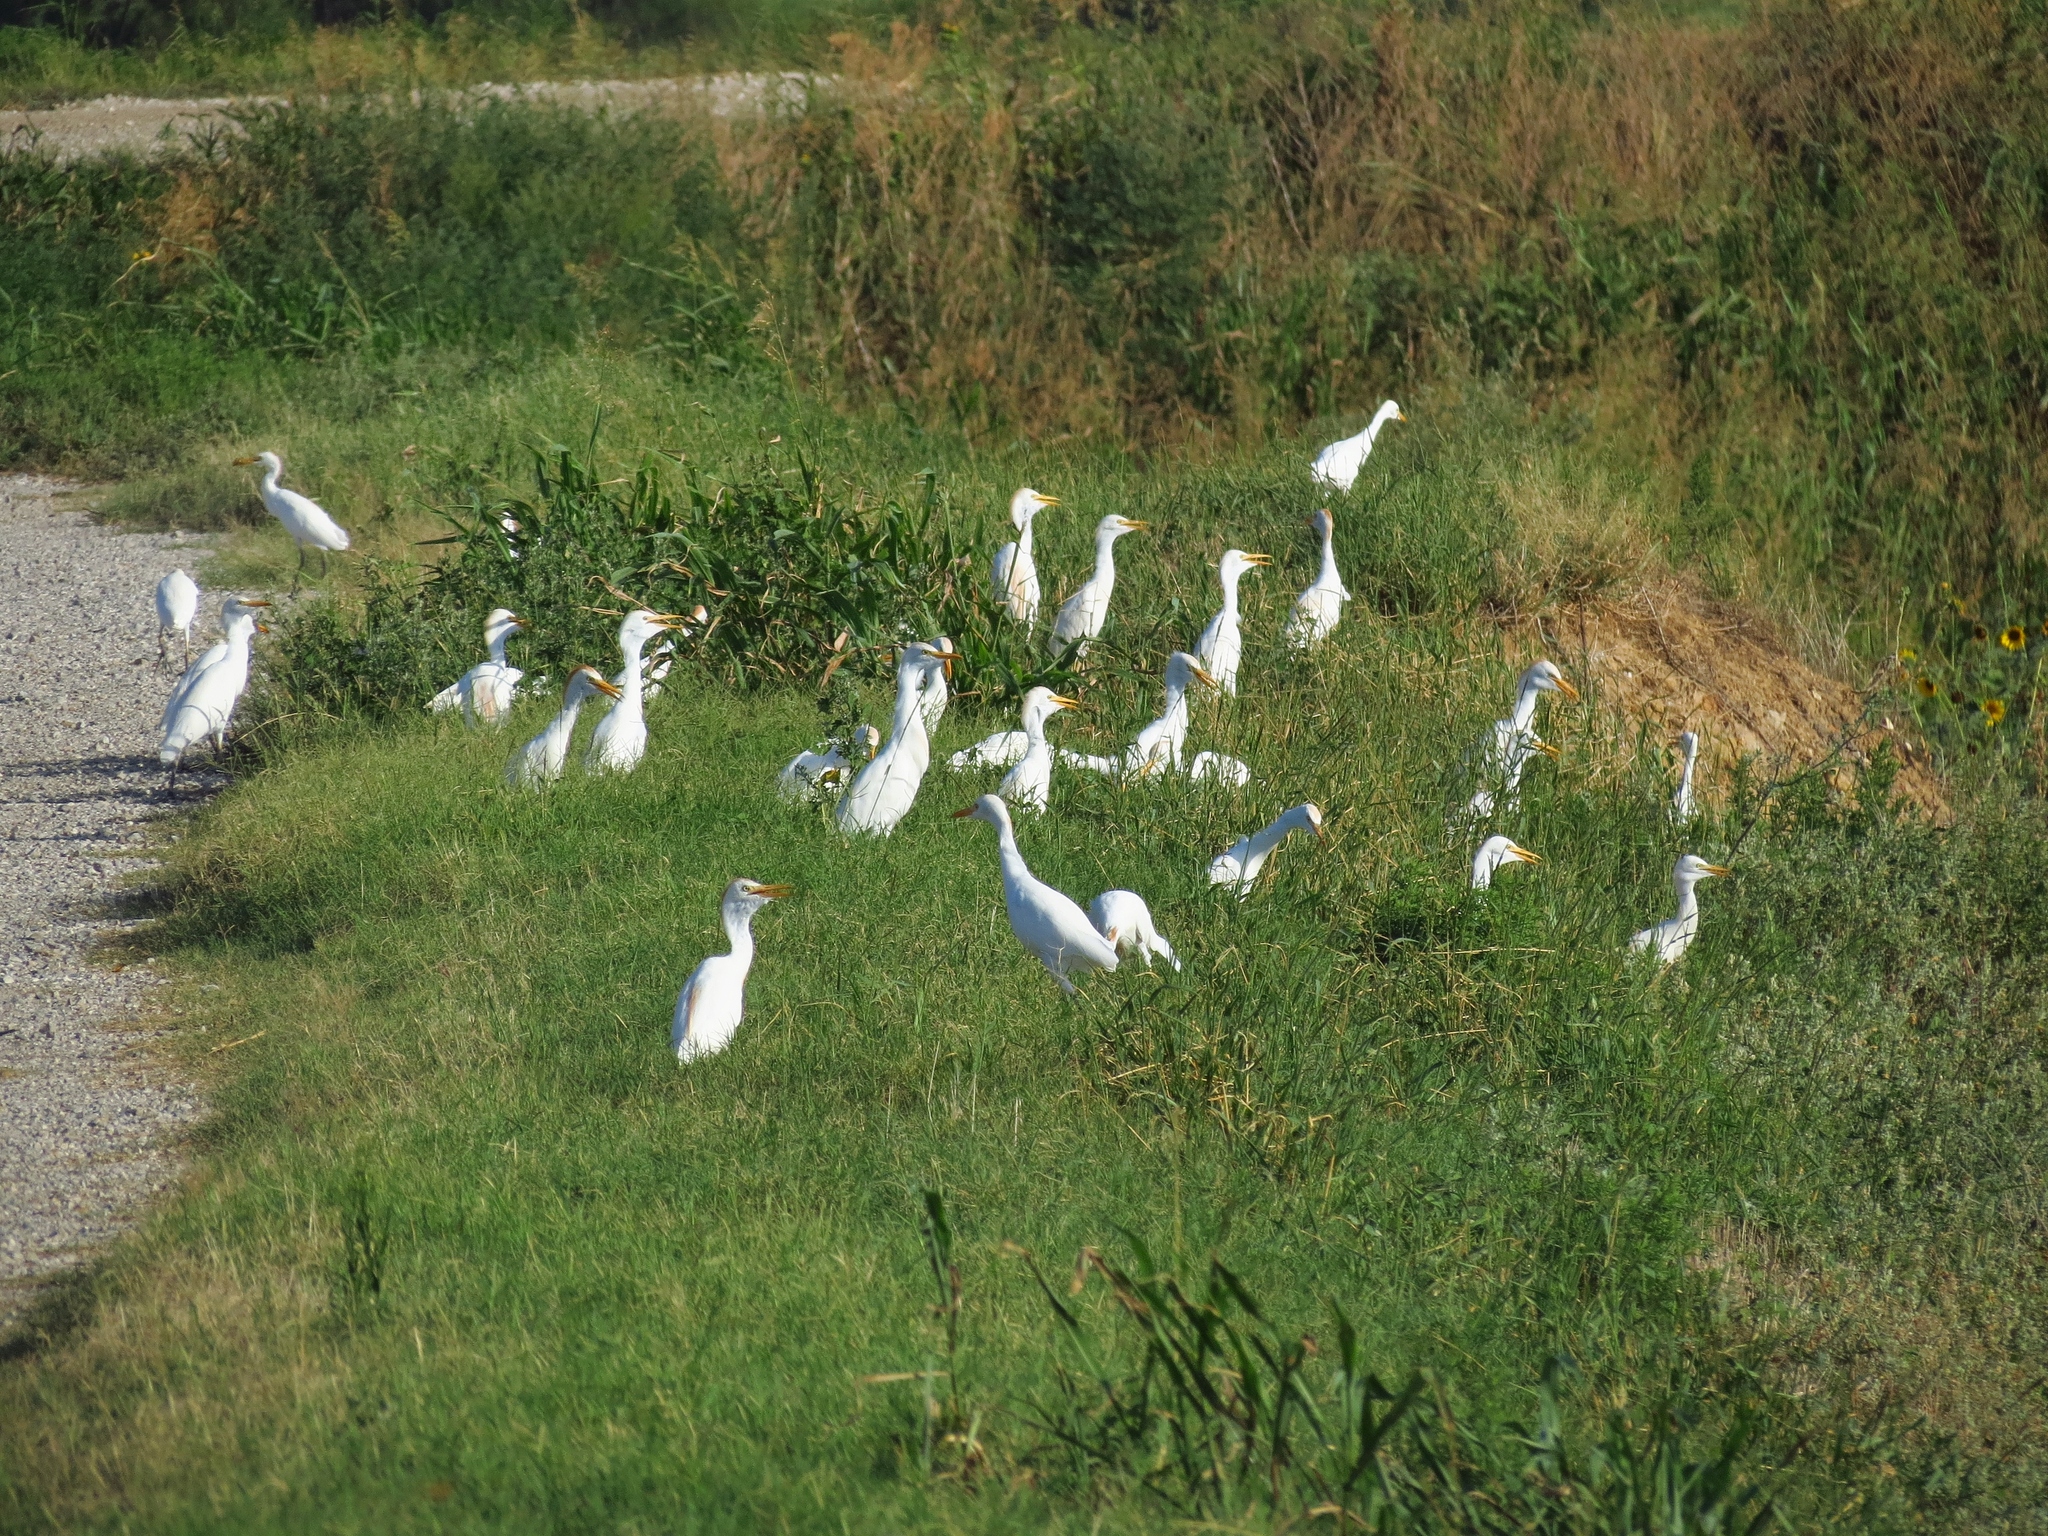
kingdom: Animalia
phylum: Chordata
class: Aves
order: Pelecaniformes
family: Ardeidae
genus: Bubulcus
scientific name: Bubulcus ibis
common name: Cattle egret
